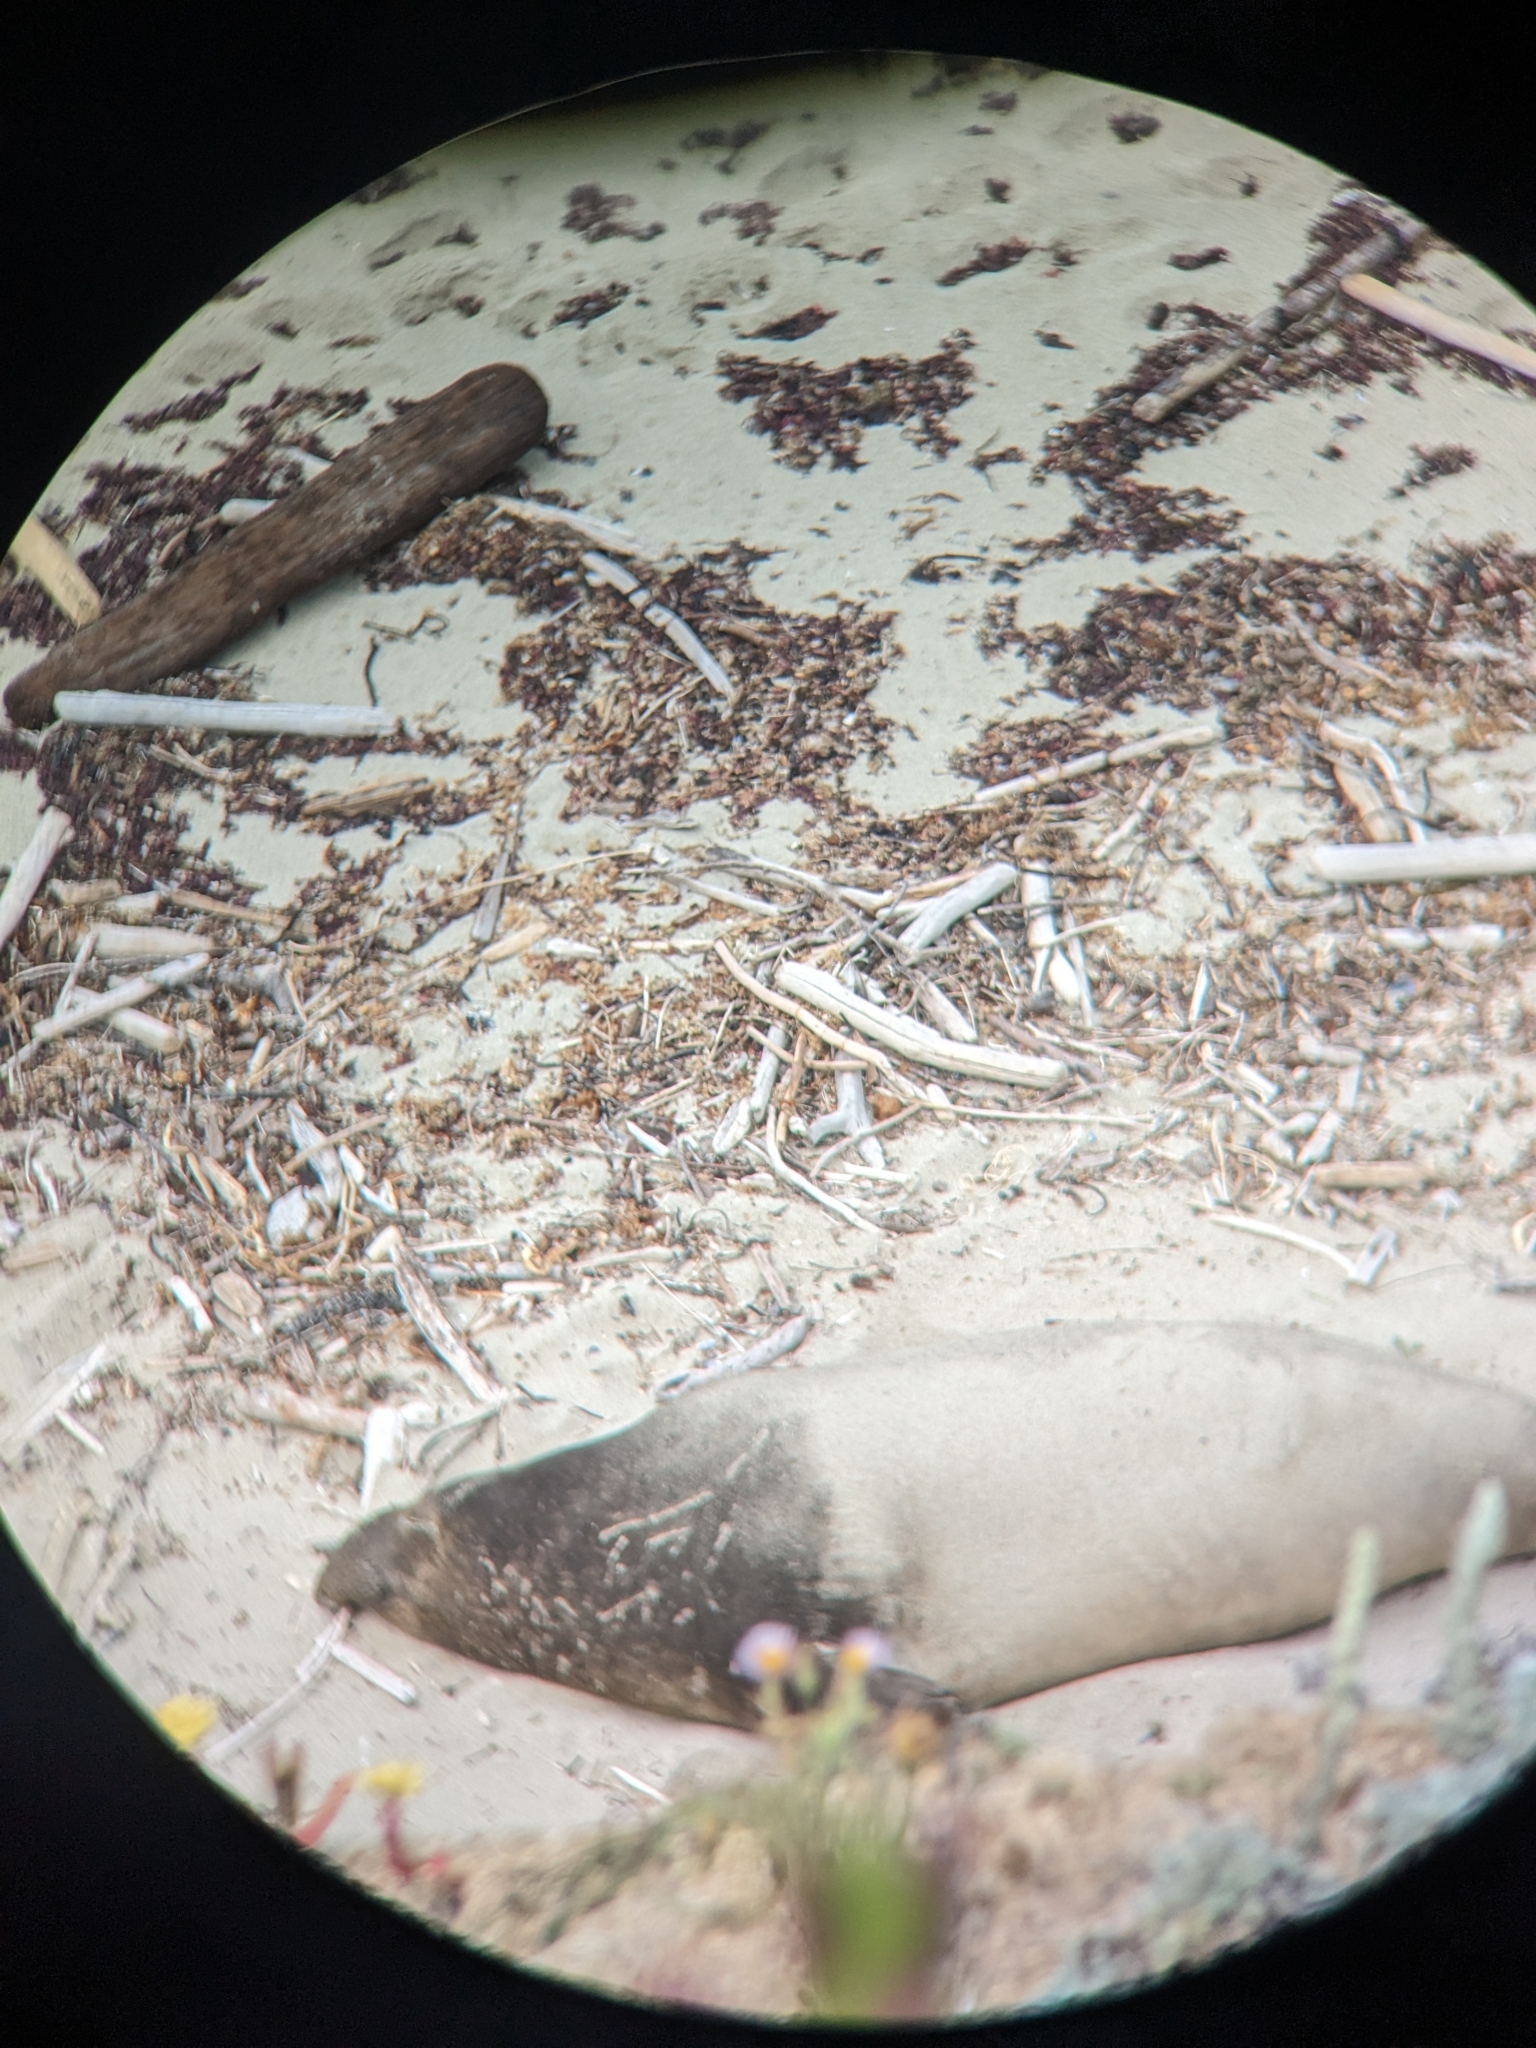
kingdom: Animalia
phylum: Chordata
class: Mammalia
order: Carnivora
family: Phocidae
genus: Mirounga
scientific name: Mirounga angustirostris
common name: Northern elephant seal
